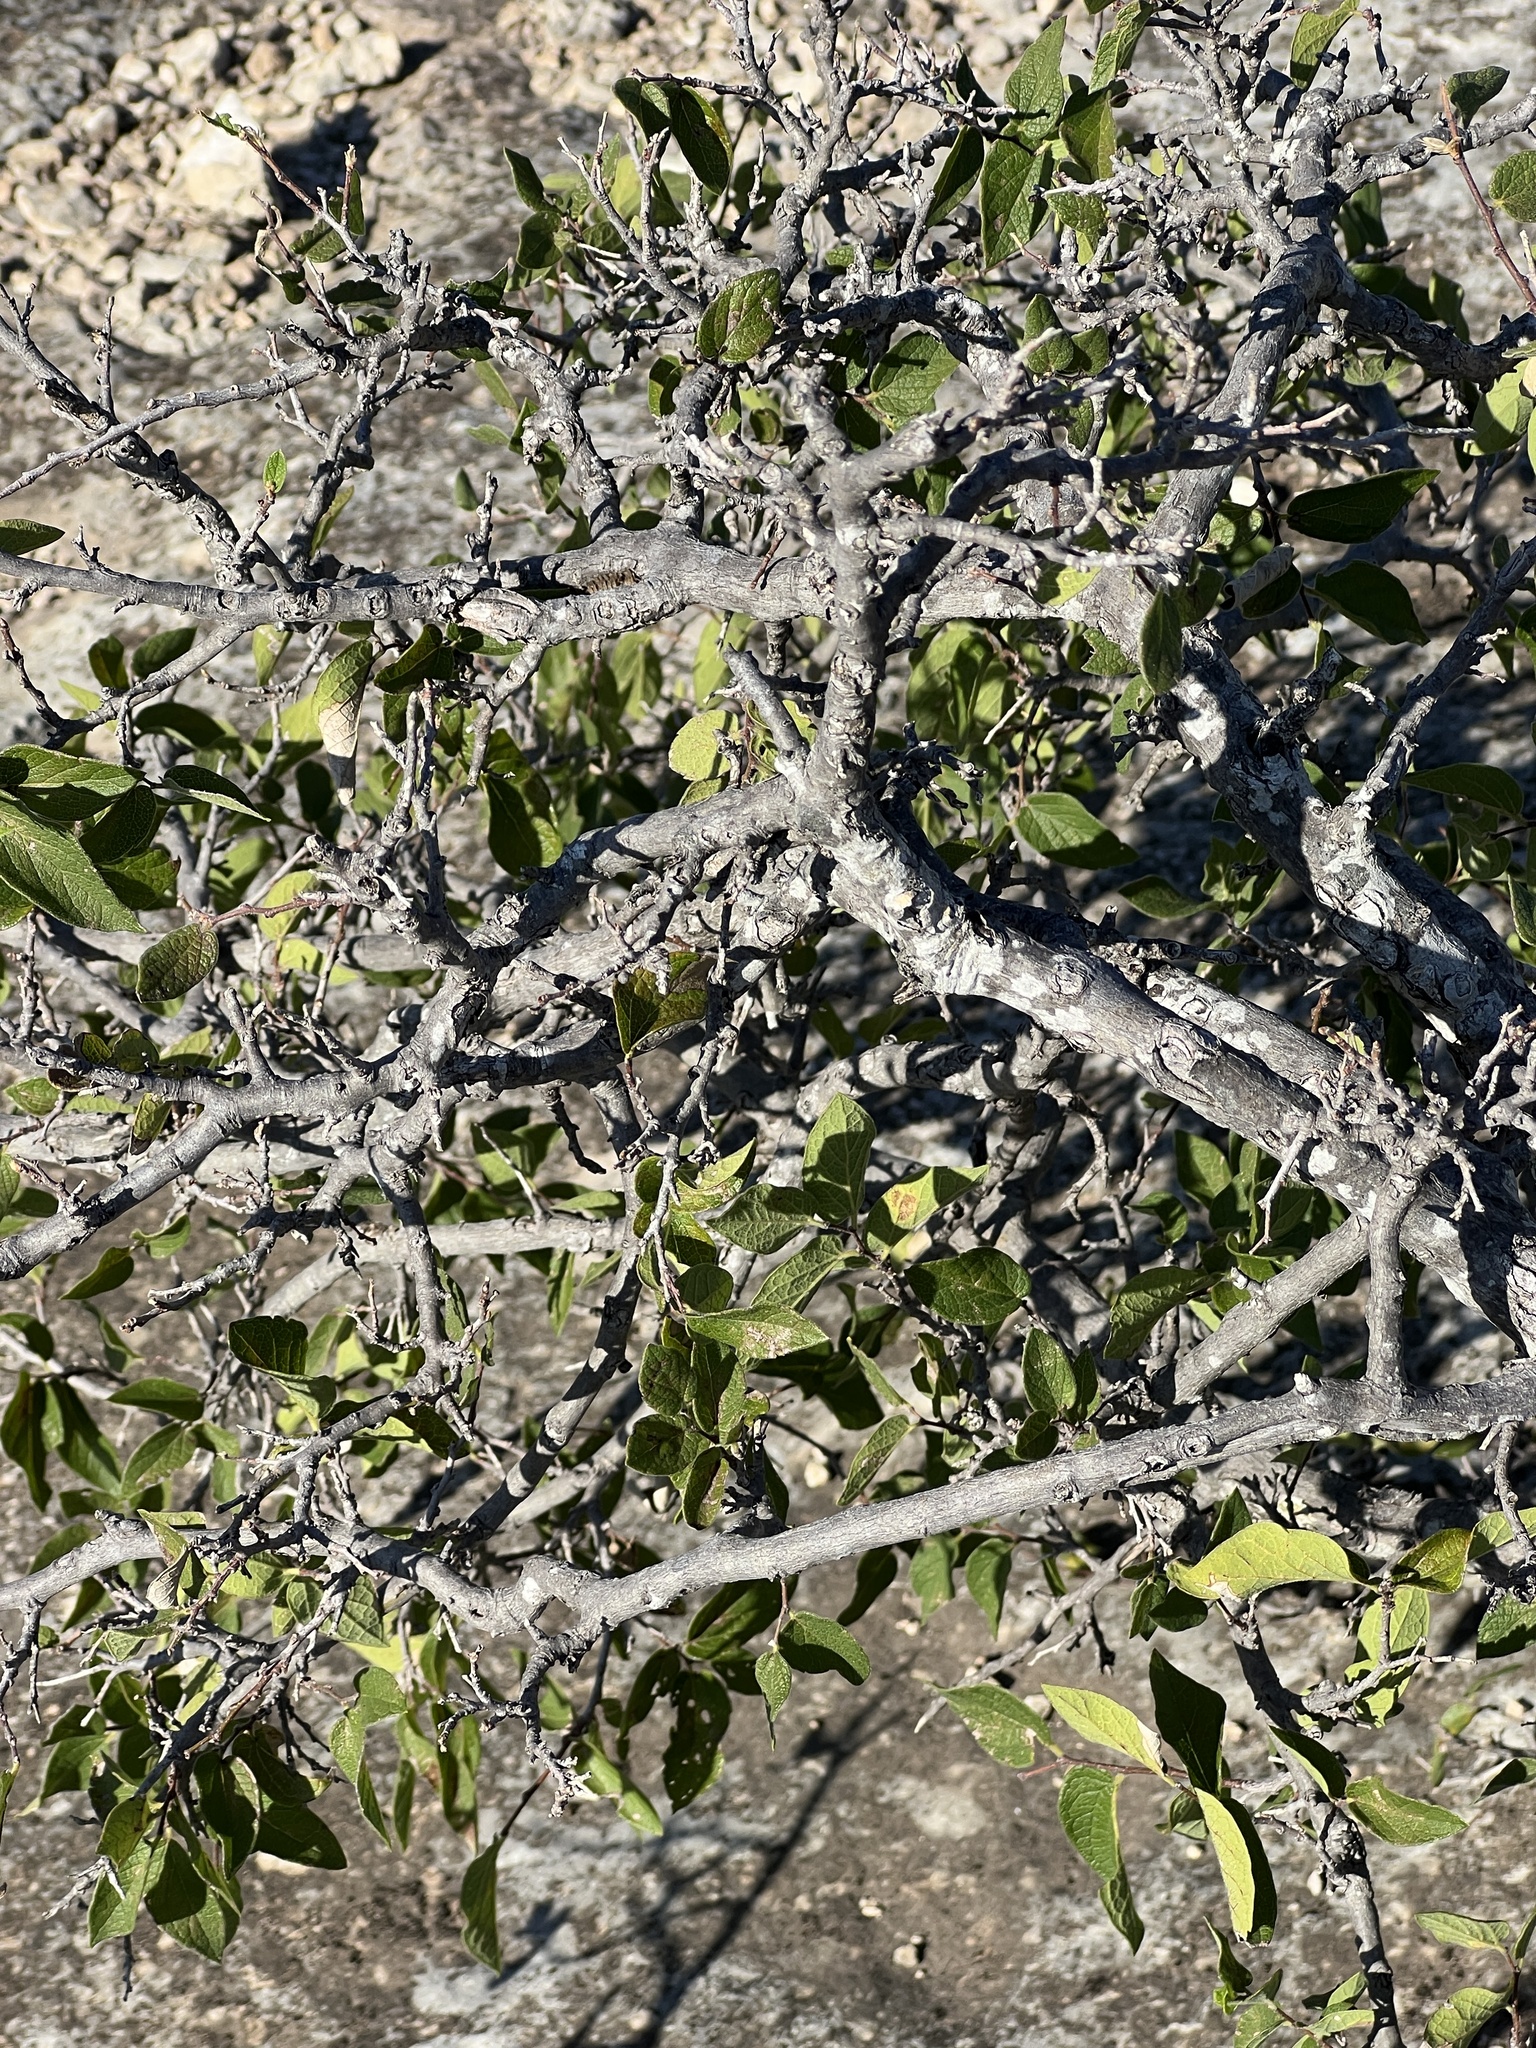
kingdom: Plantae
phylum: Tracheophyta
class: Magnoliopsida
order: Rosales
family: Cannabaceae
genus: Celtis
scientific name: Celtis reticulata
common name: Netleaf hackberry
